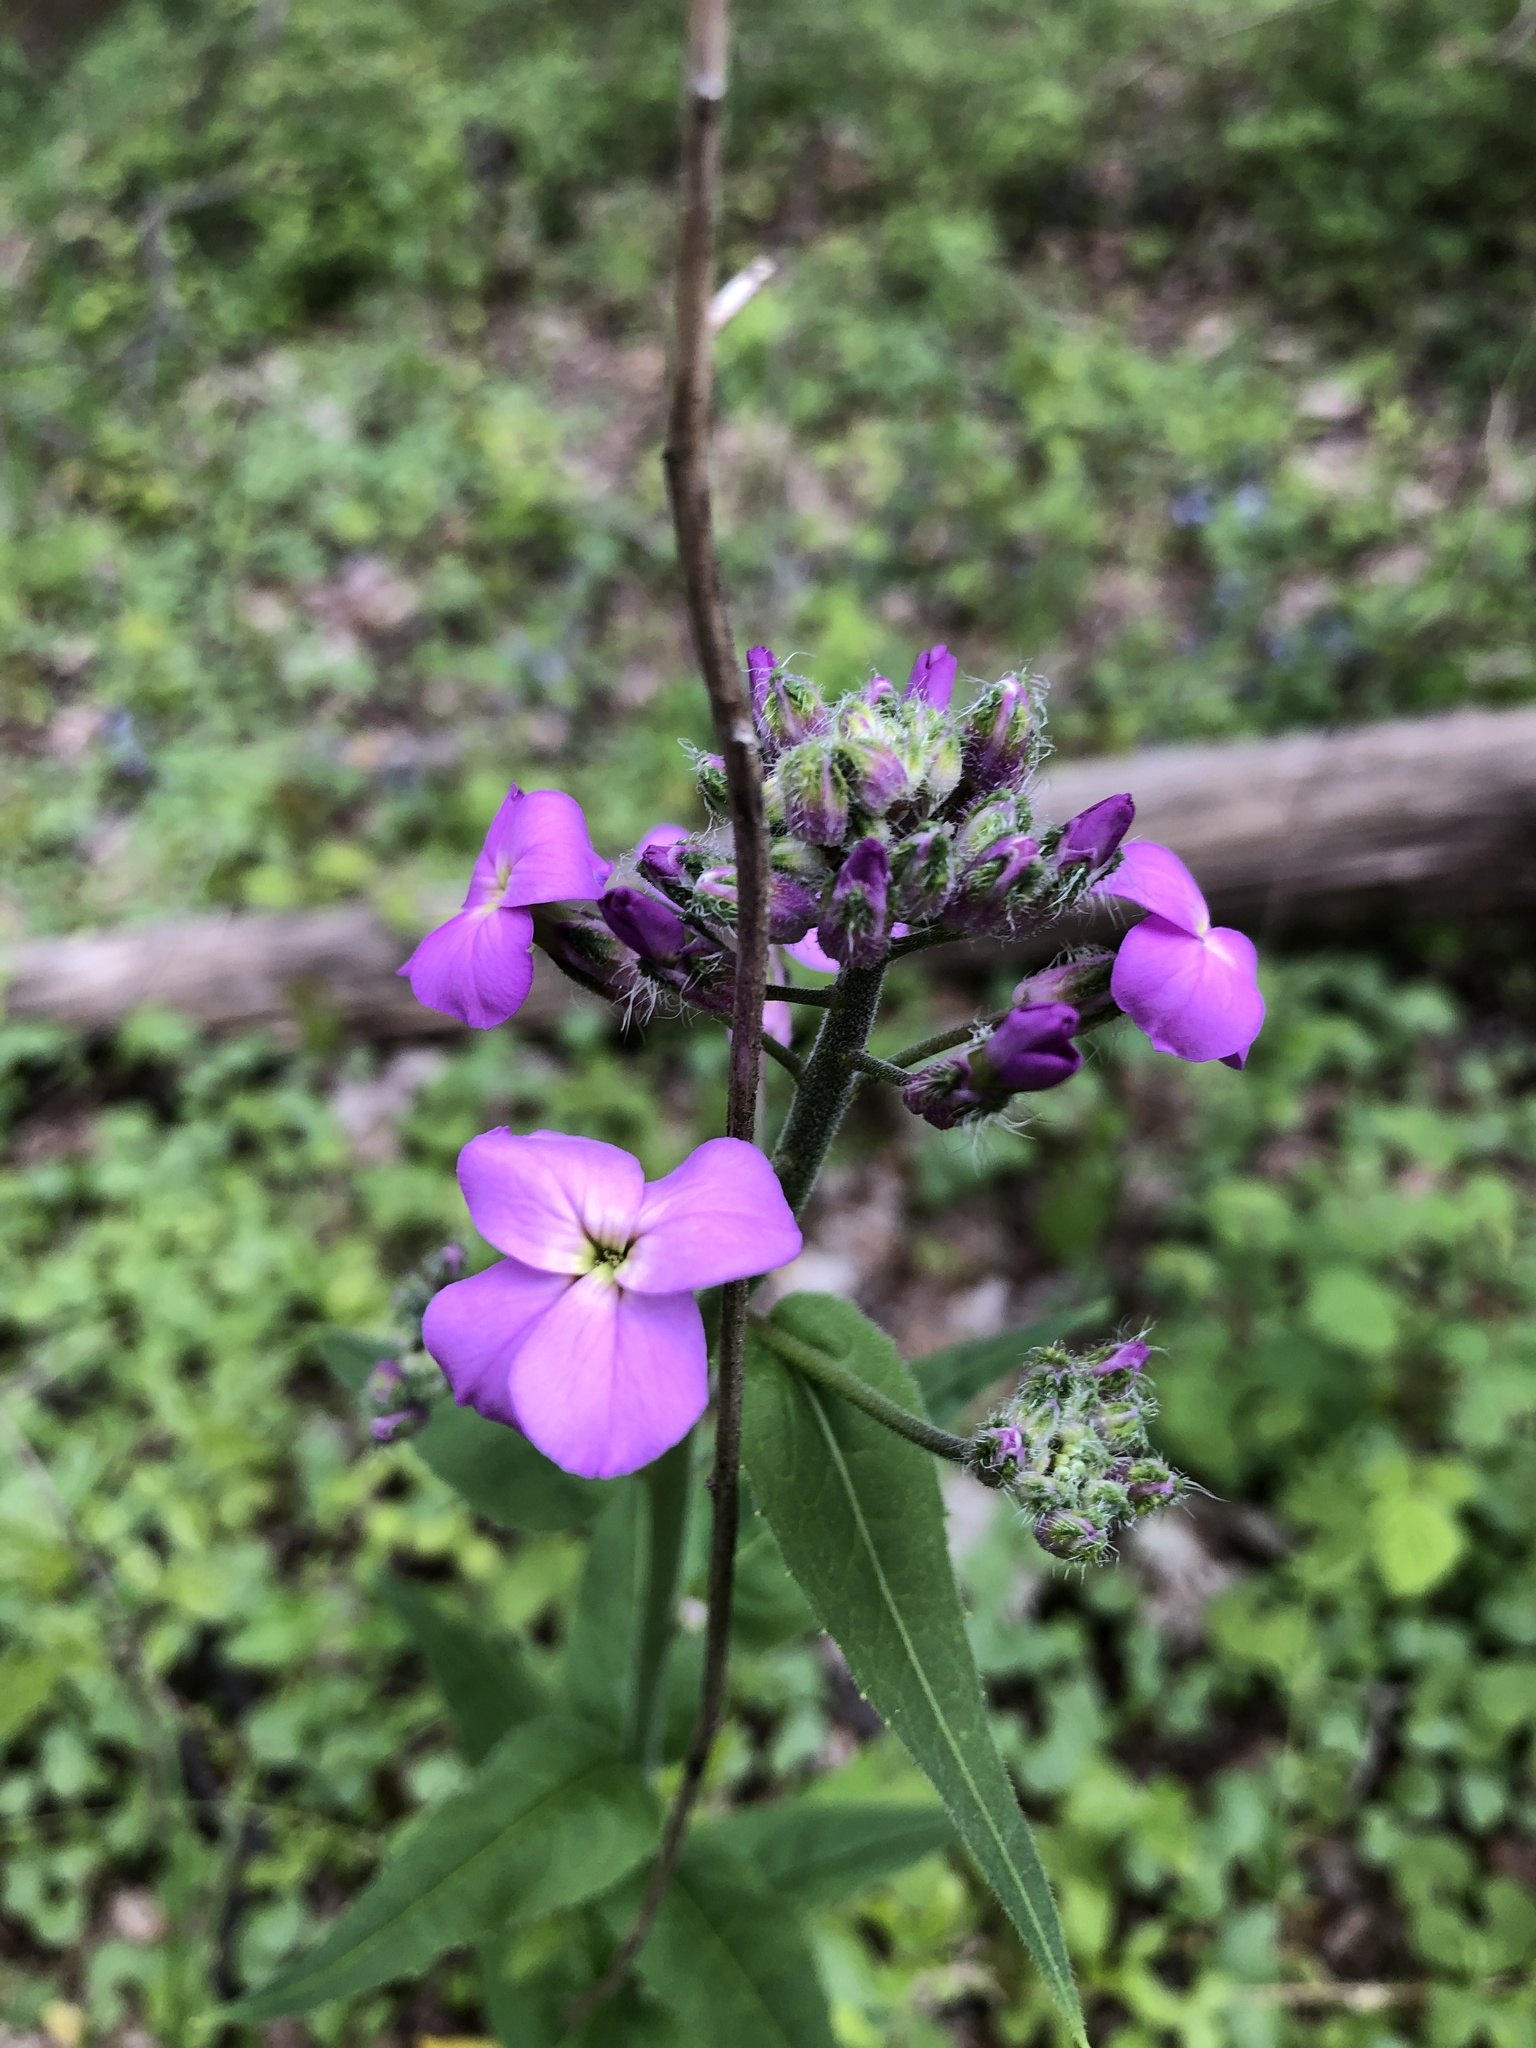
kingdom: Plantae
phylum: Tracheophyta
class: Magnoliopsida
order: Brassicales
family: Brassicaceae
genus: Hesperis
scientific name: Hesperis matronalis
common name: Dame's-violet
